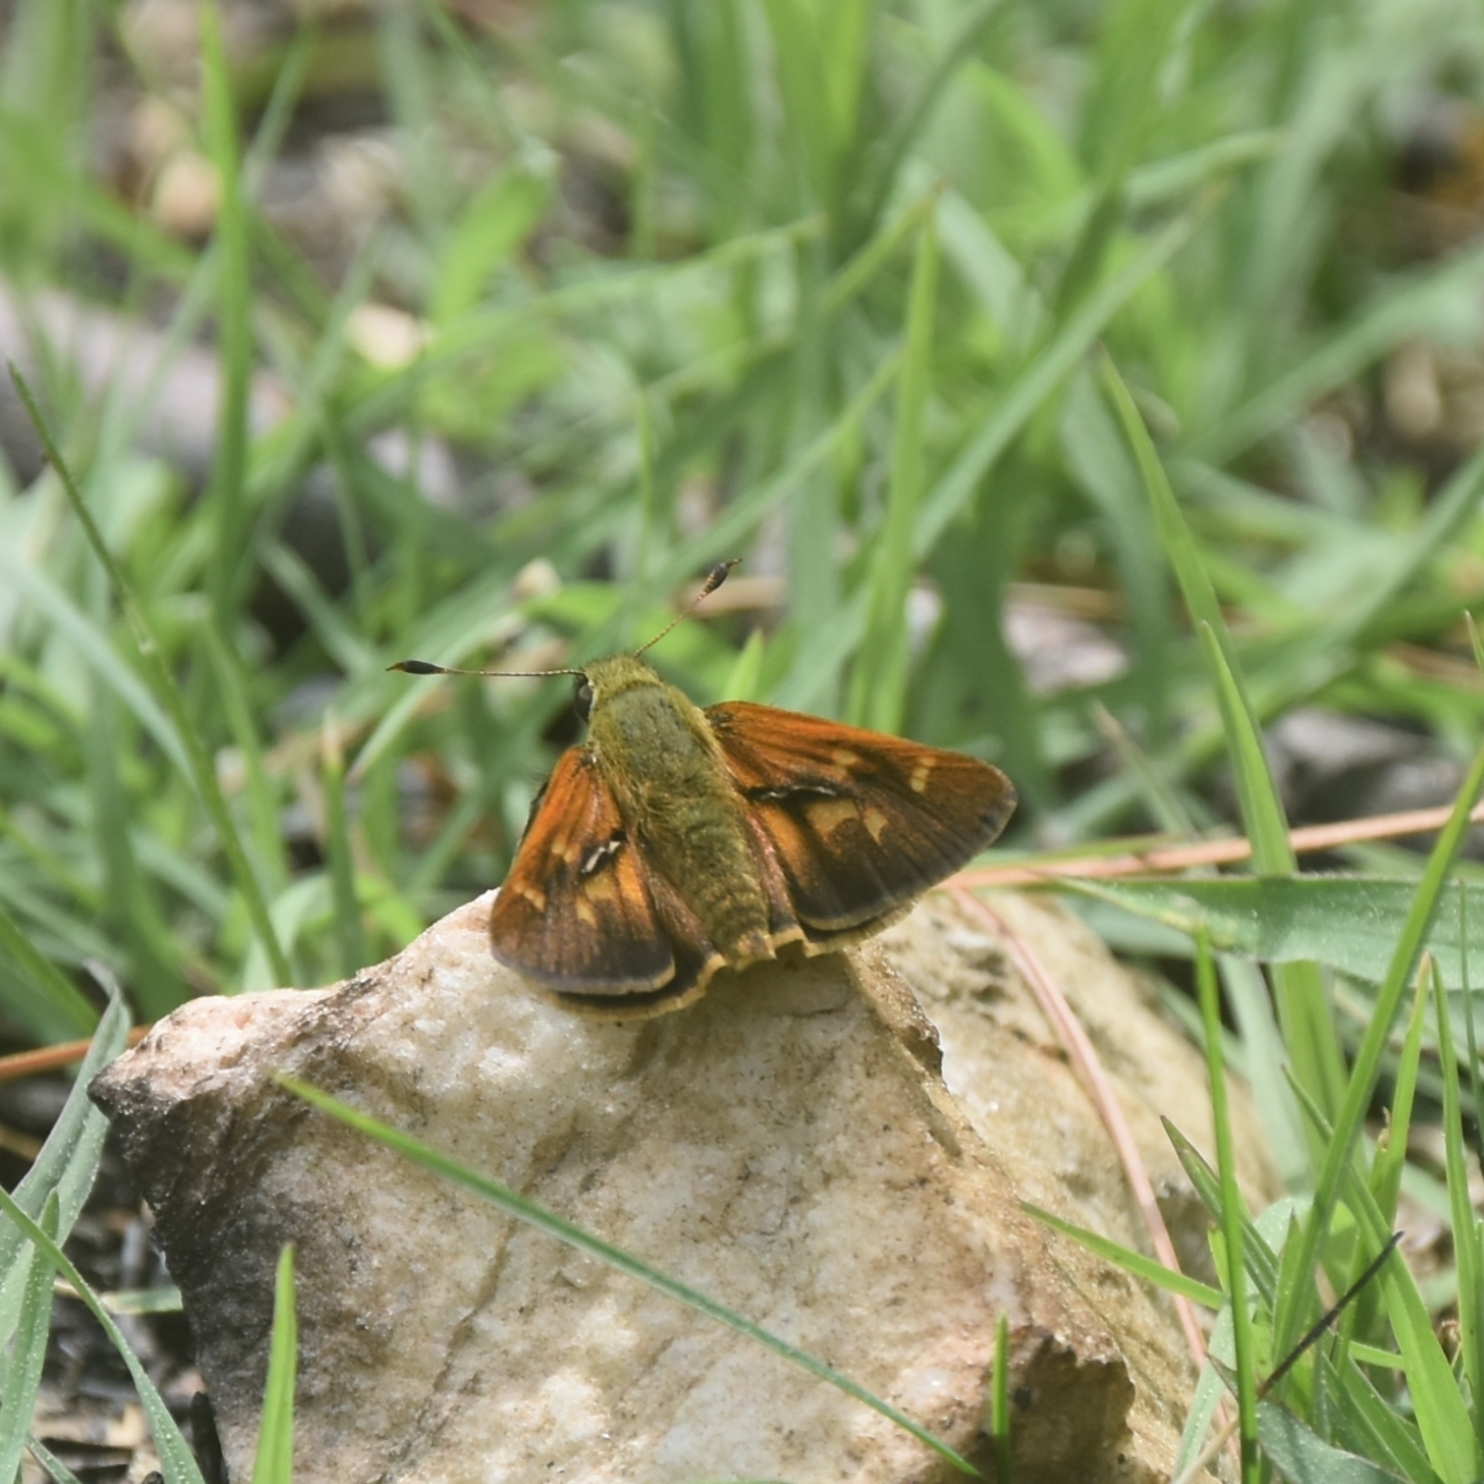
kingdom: Animalia
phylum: Arthropoda
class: Insecta
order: Lepidoptera
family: Hesperiidae
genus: Ochlodes
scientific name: Ochlodes brahma
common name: Himalayan forest darter
